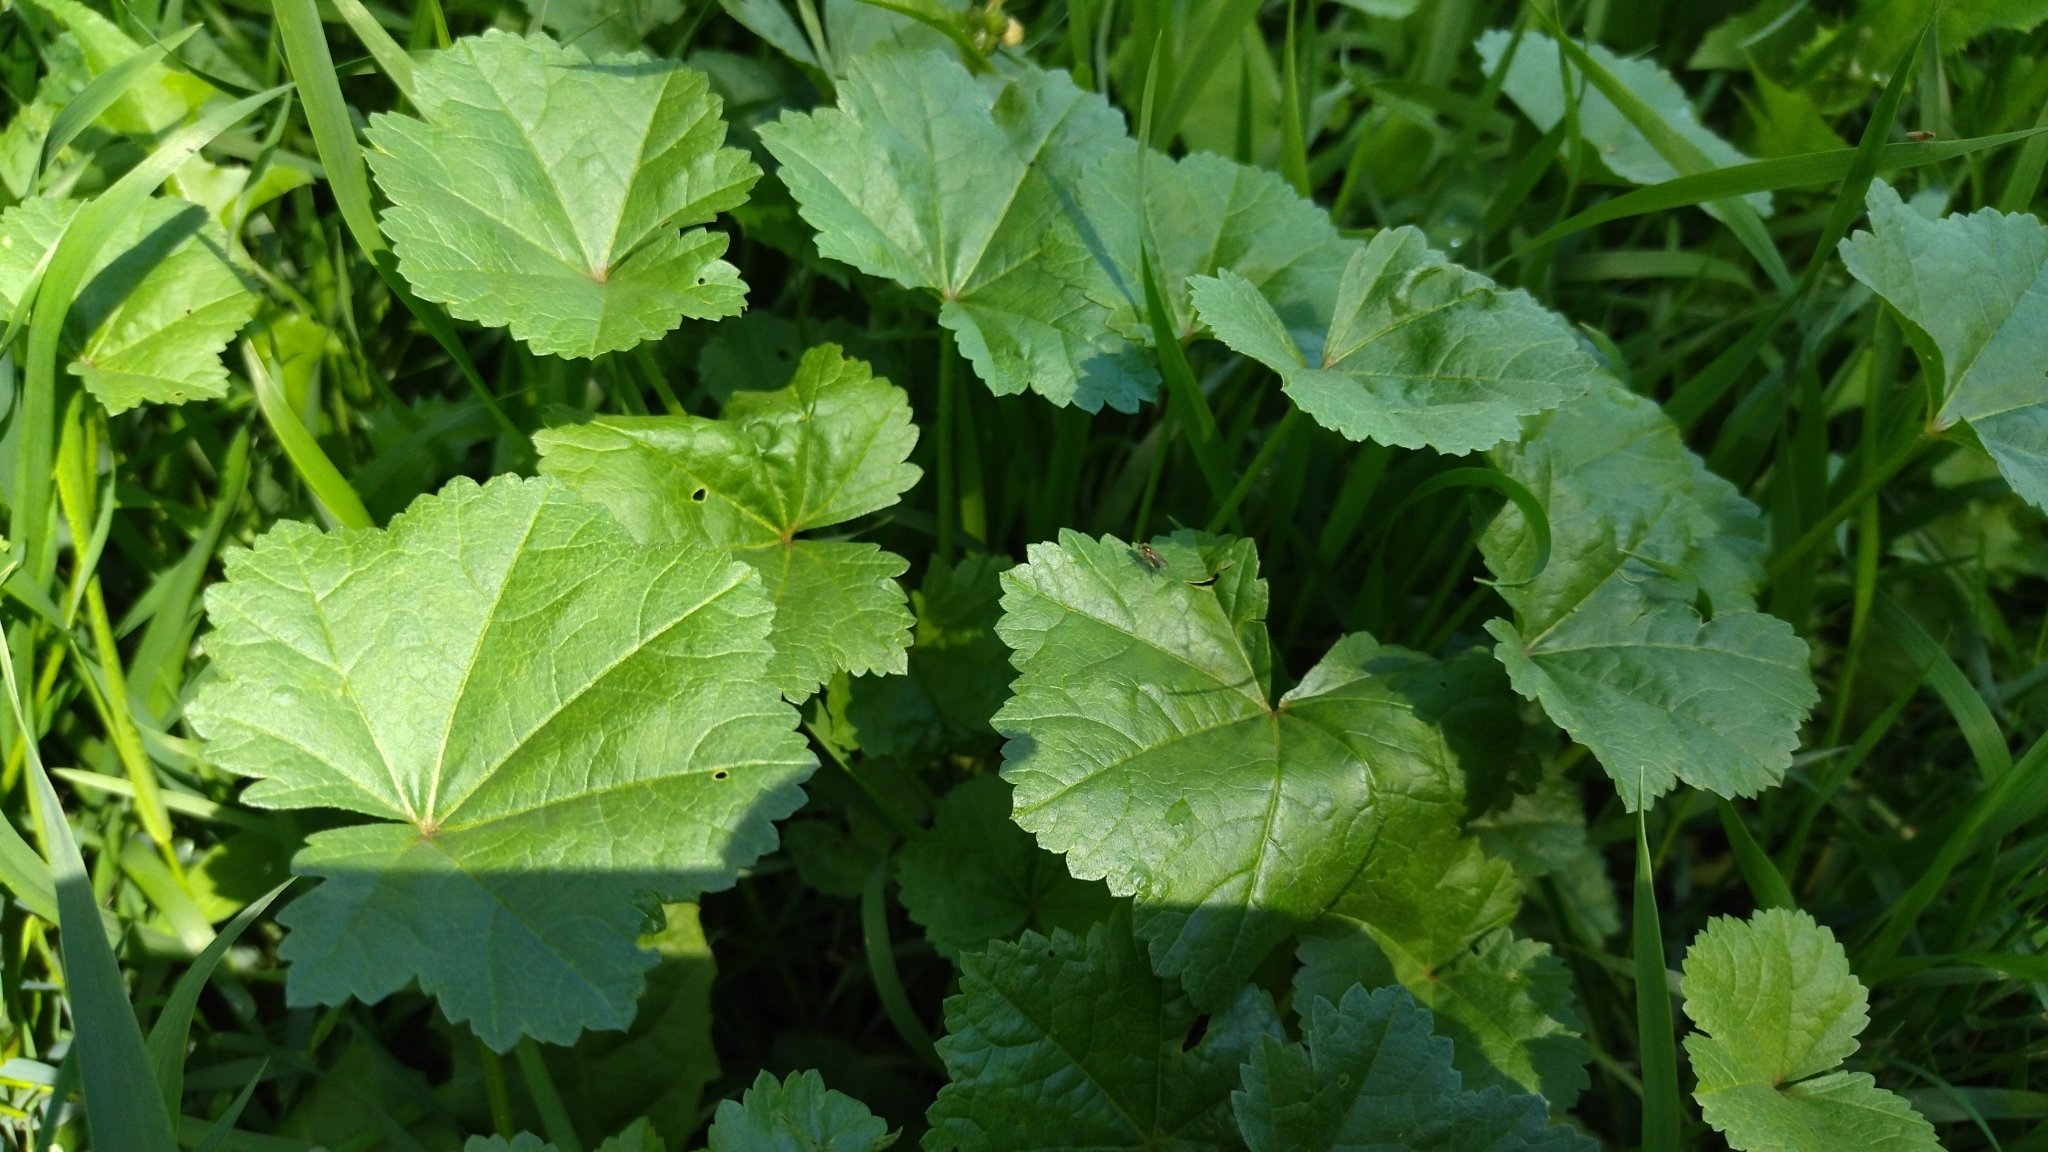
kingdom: Plantae
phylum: Tracheophyta
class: Magnoliopsida
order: Malvales
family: Malvaceae
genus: Malva
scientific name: Malva pusilla
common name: Small mallow
